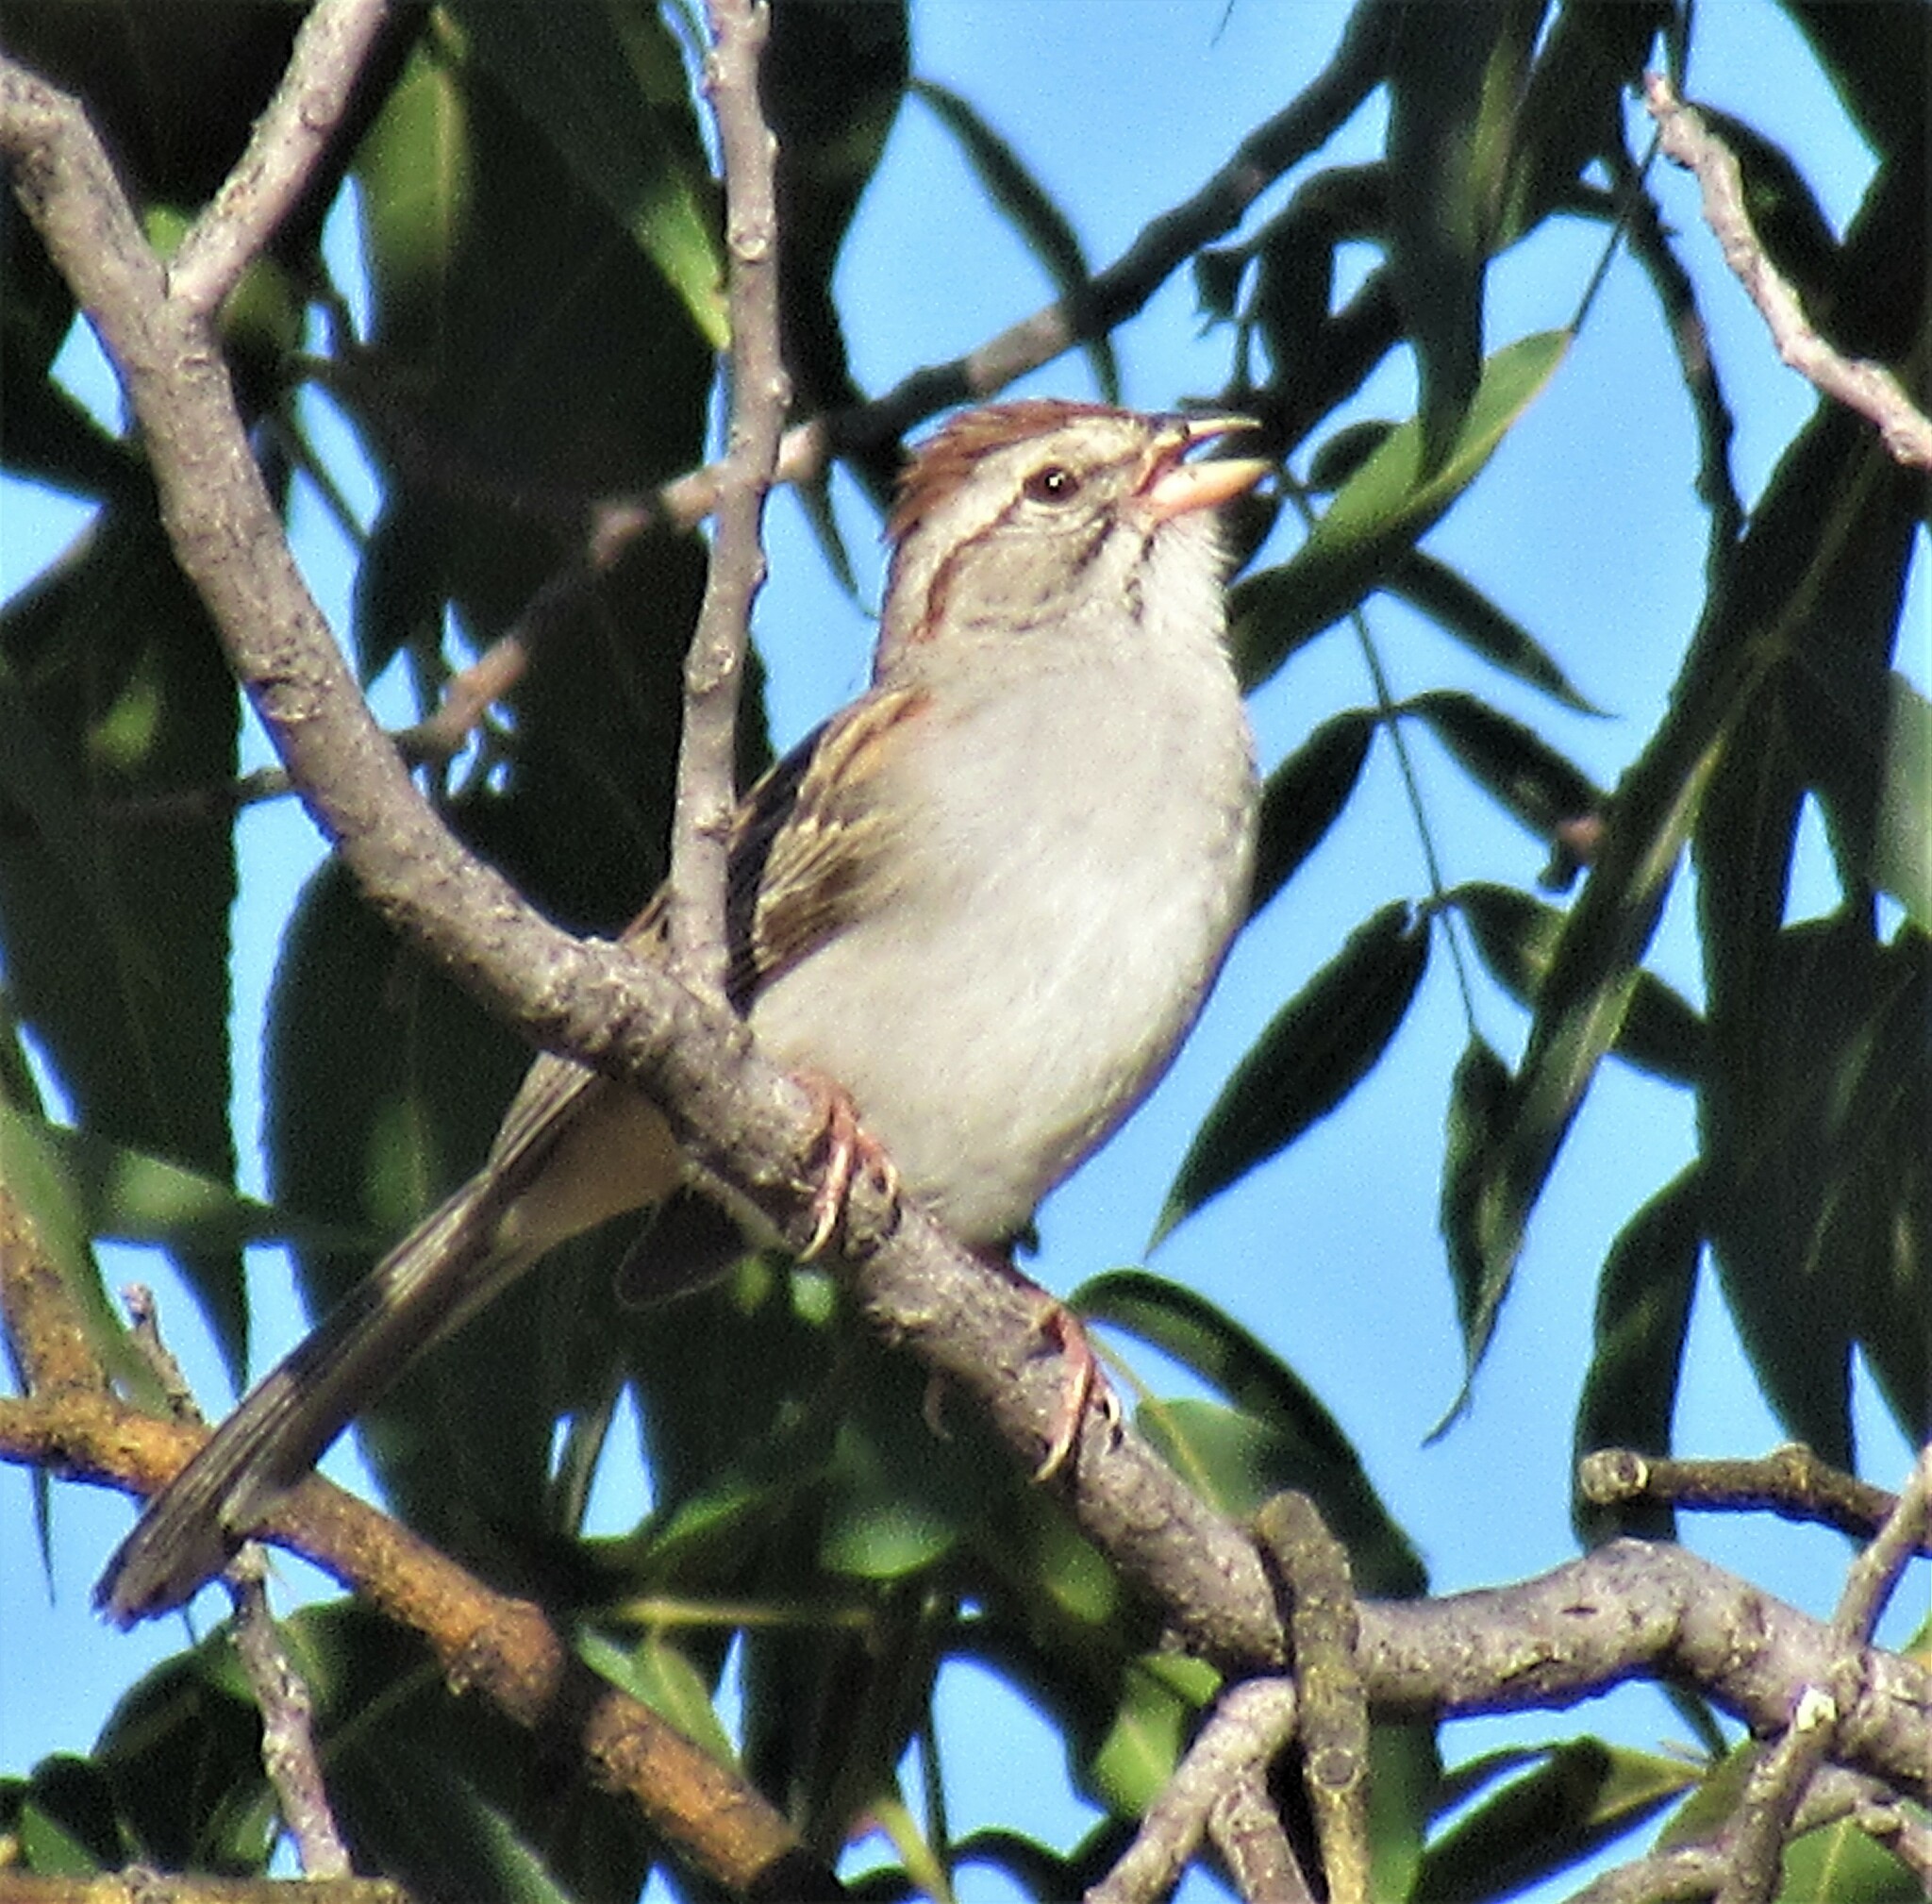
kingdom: Animalia
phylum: Chordata
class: Aves
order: Passeriformes
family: Passerellidae
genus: Peucaea
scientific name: Peucaea carpalis
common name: Rufous-winged sparrow
